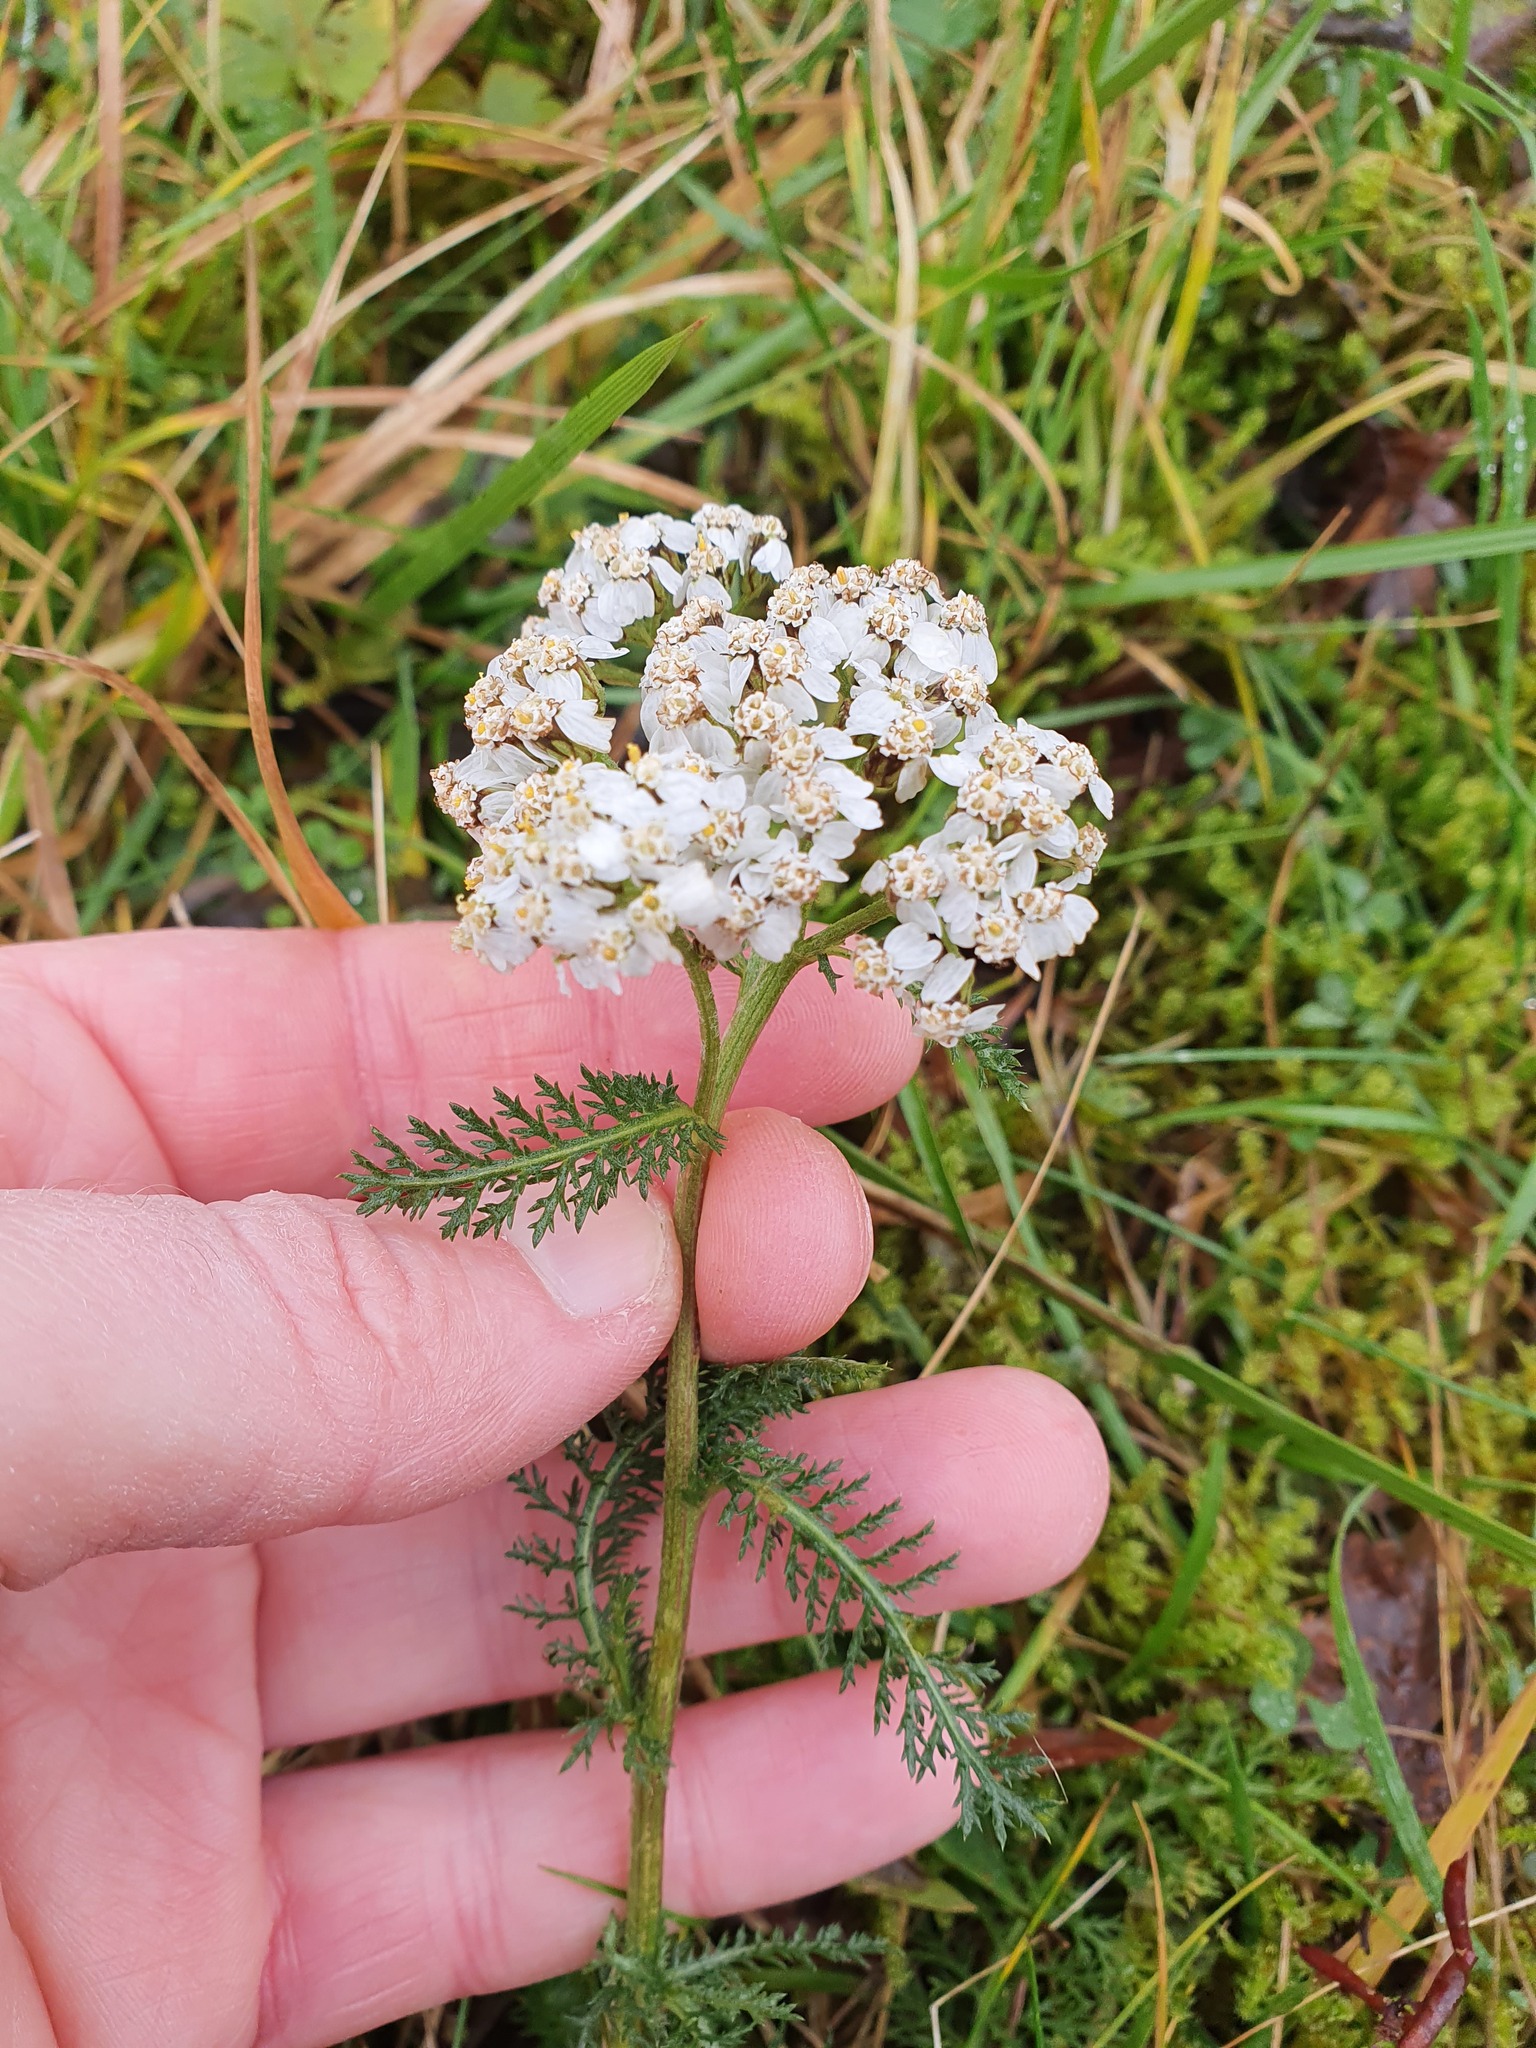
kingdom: Plantae
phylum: Tracheophyta
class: Magnoliopsida
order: Asterales
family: Asteraceae
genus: Achillea
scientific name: Achillea millefolium
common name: Yarrow
